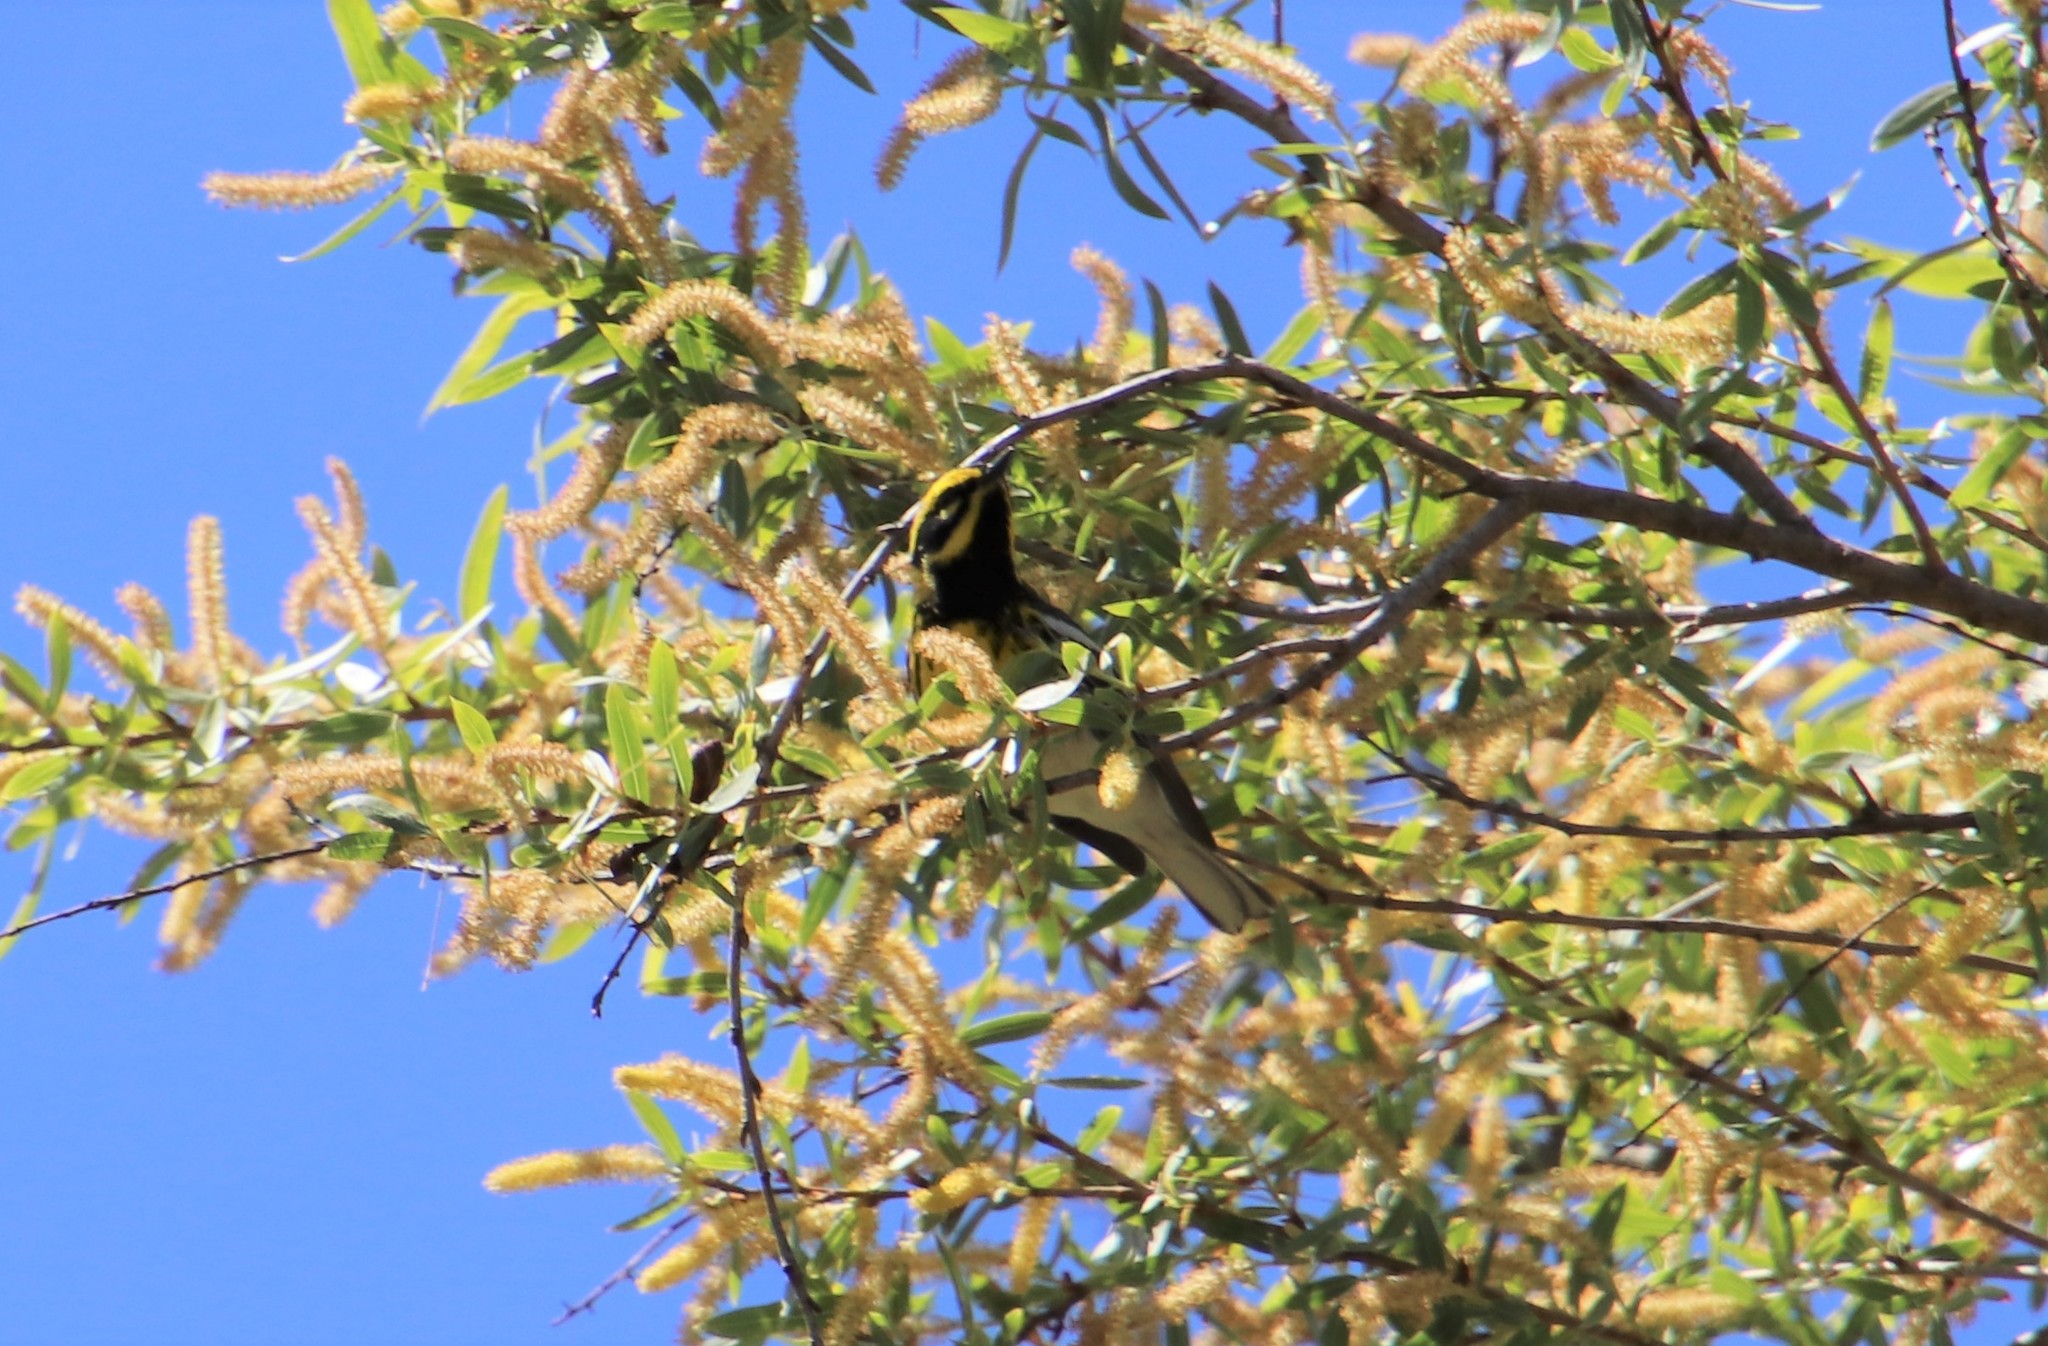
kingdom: Animalia
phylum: Chordata
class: Aves
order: Passeriformes
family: Parulidae
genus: Setophaga
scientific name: Setophaga townsendi
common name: Townsend's warbler
